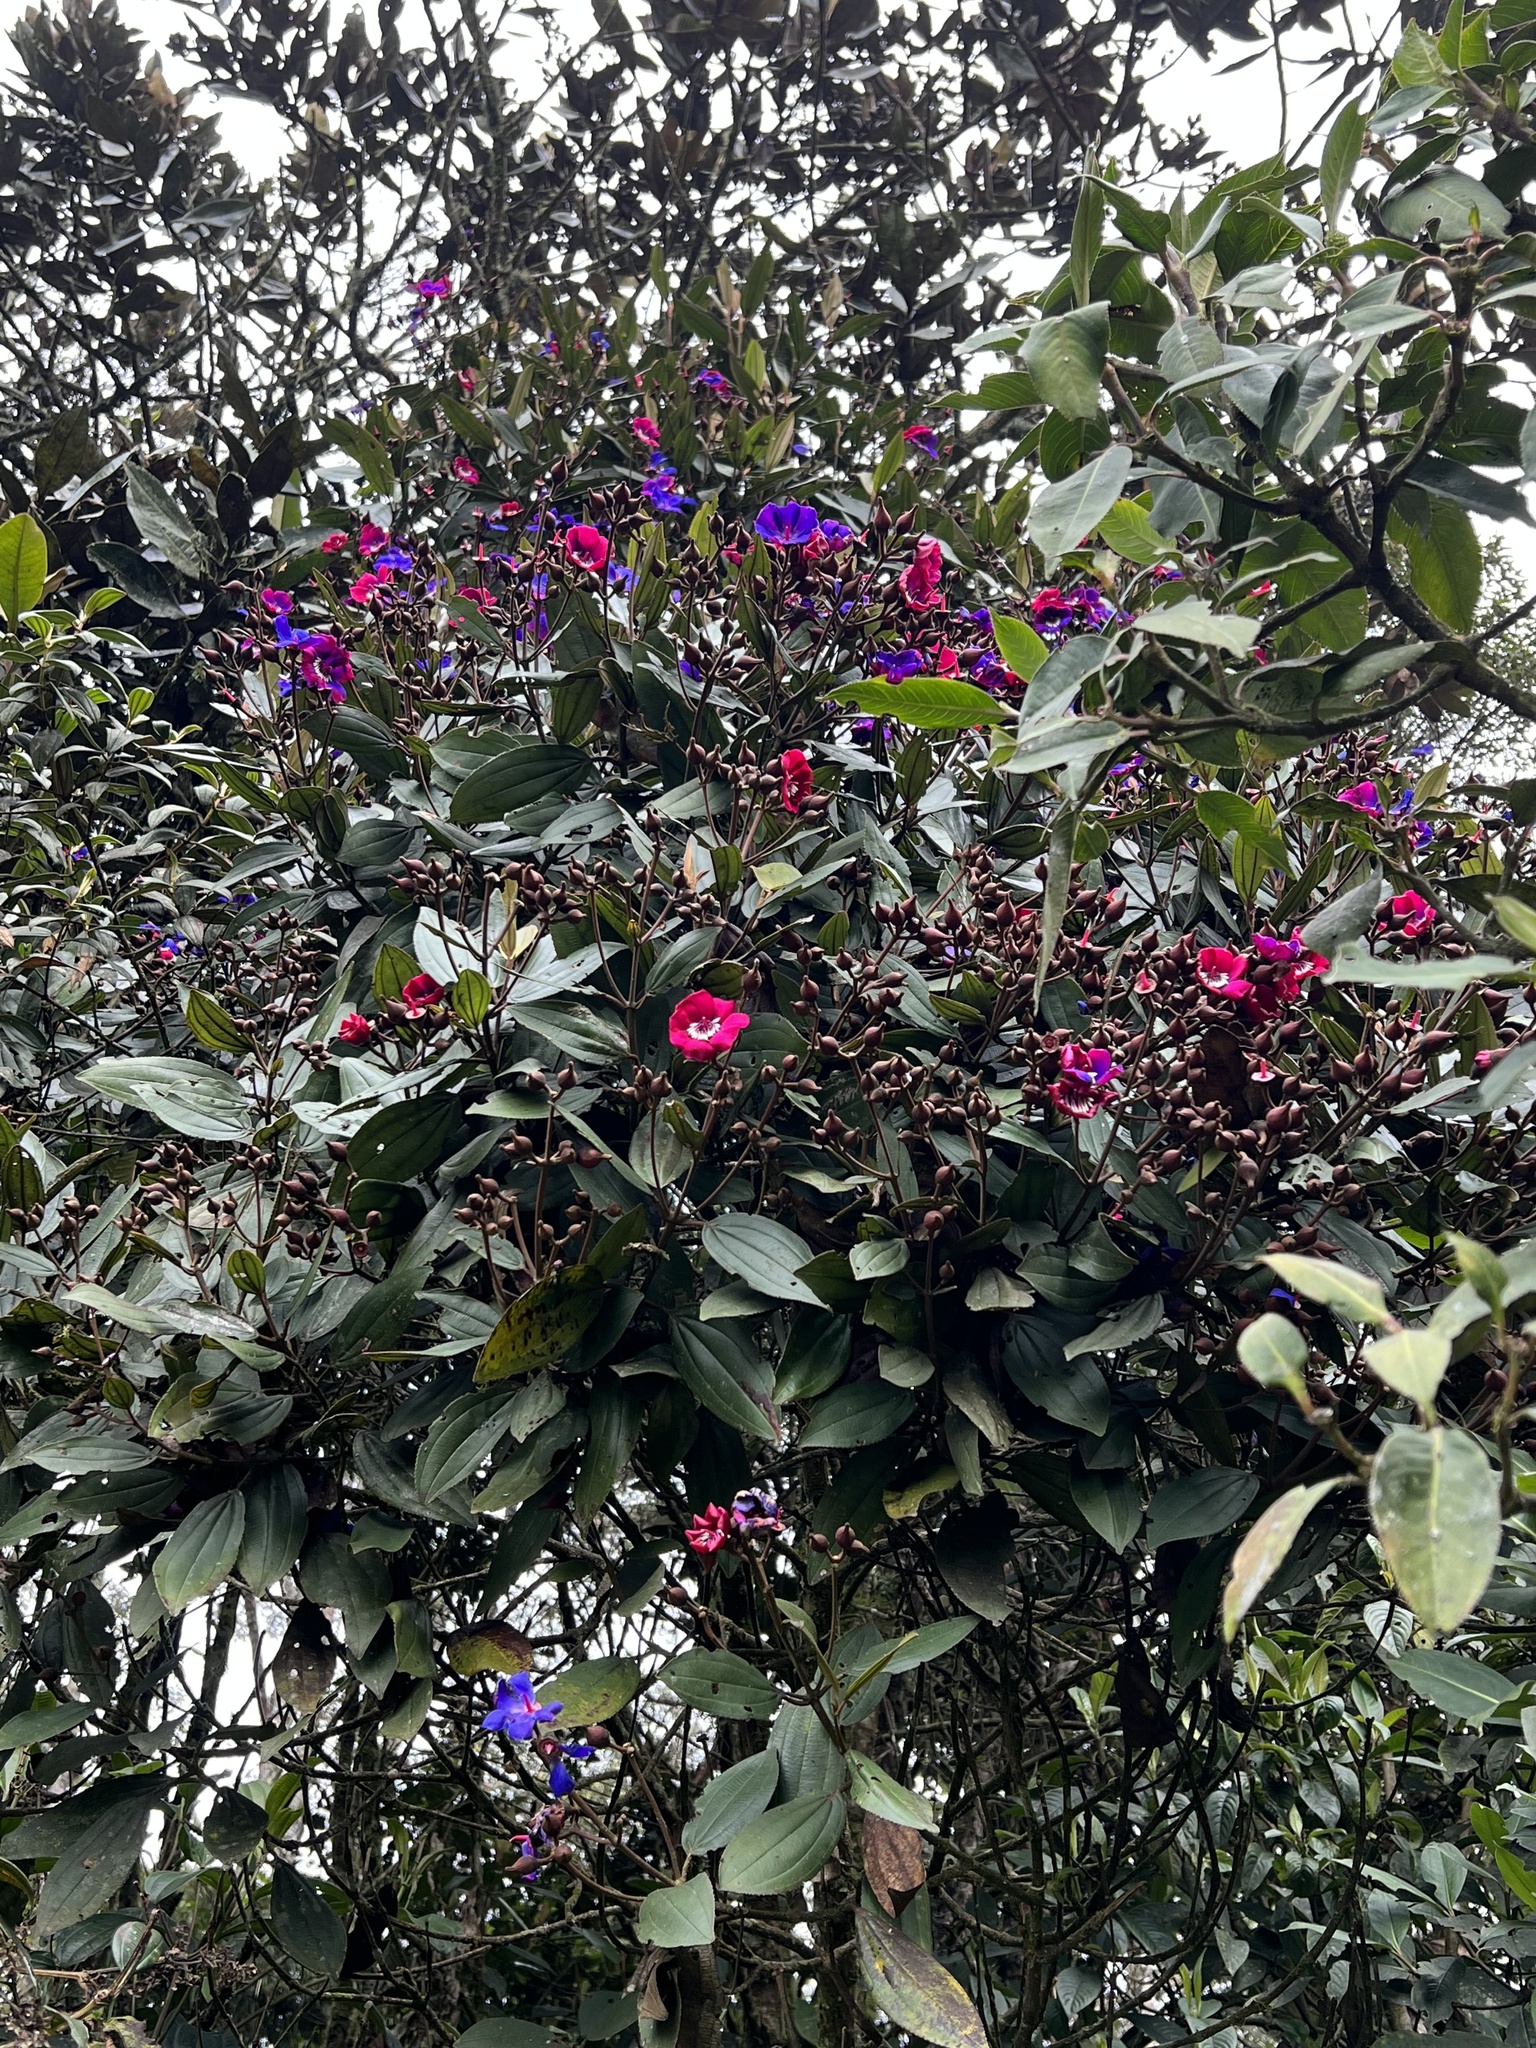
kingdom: Plantae
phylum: Tracheophyta
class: Magnoliopsida
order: Myrtales
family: Melastomataceae
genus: Meriania
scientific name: Meriania aguaditensis
